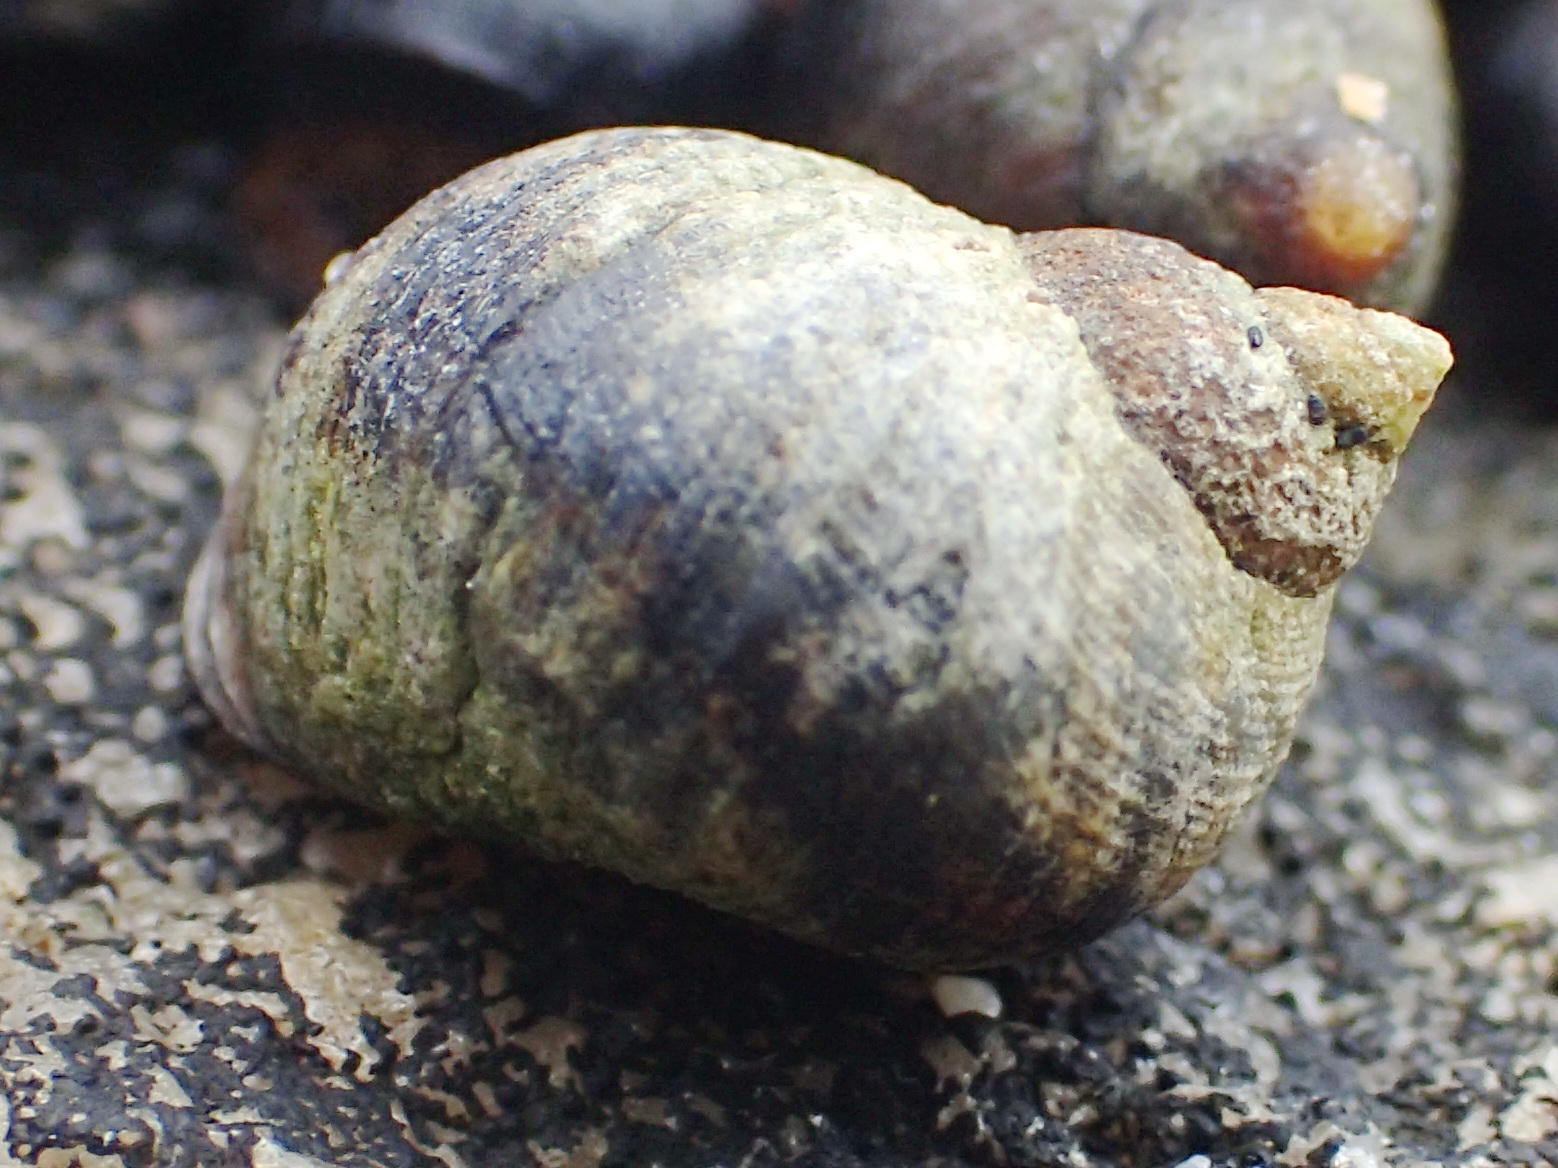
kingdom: Animalia
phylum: Mollusca
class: Gastropoda
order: Littorinimorpha
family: Littorinidae
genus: Afrolittorina
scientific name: Afrolittorina knysnaensis
